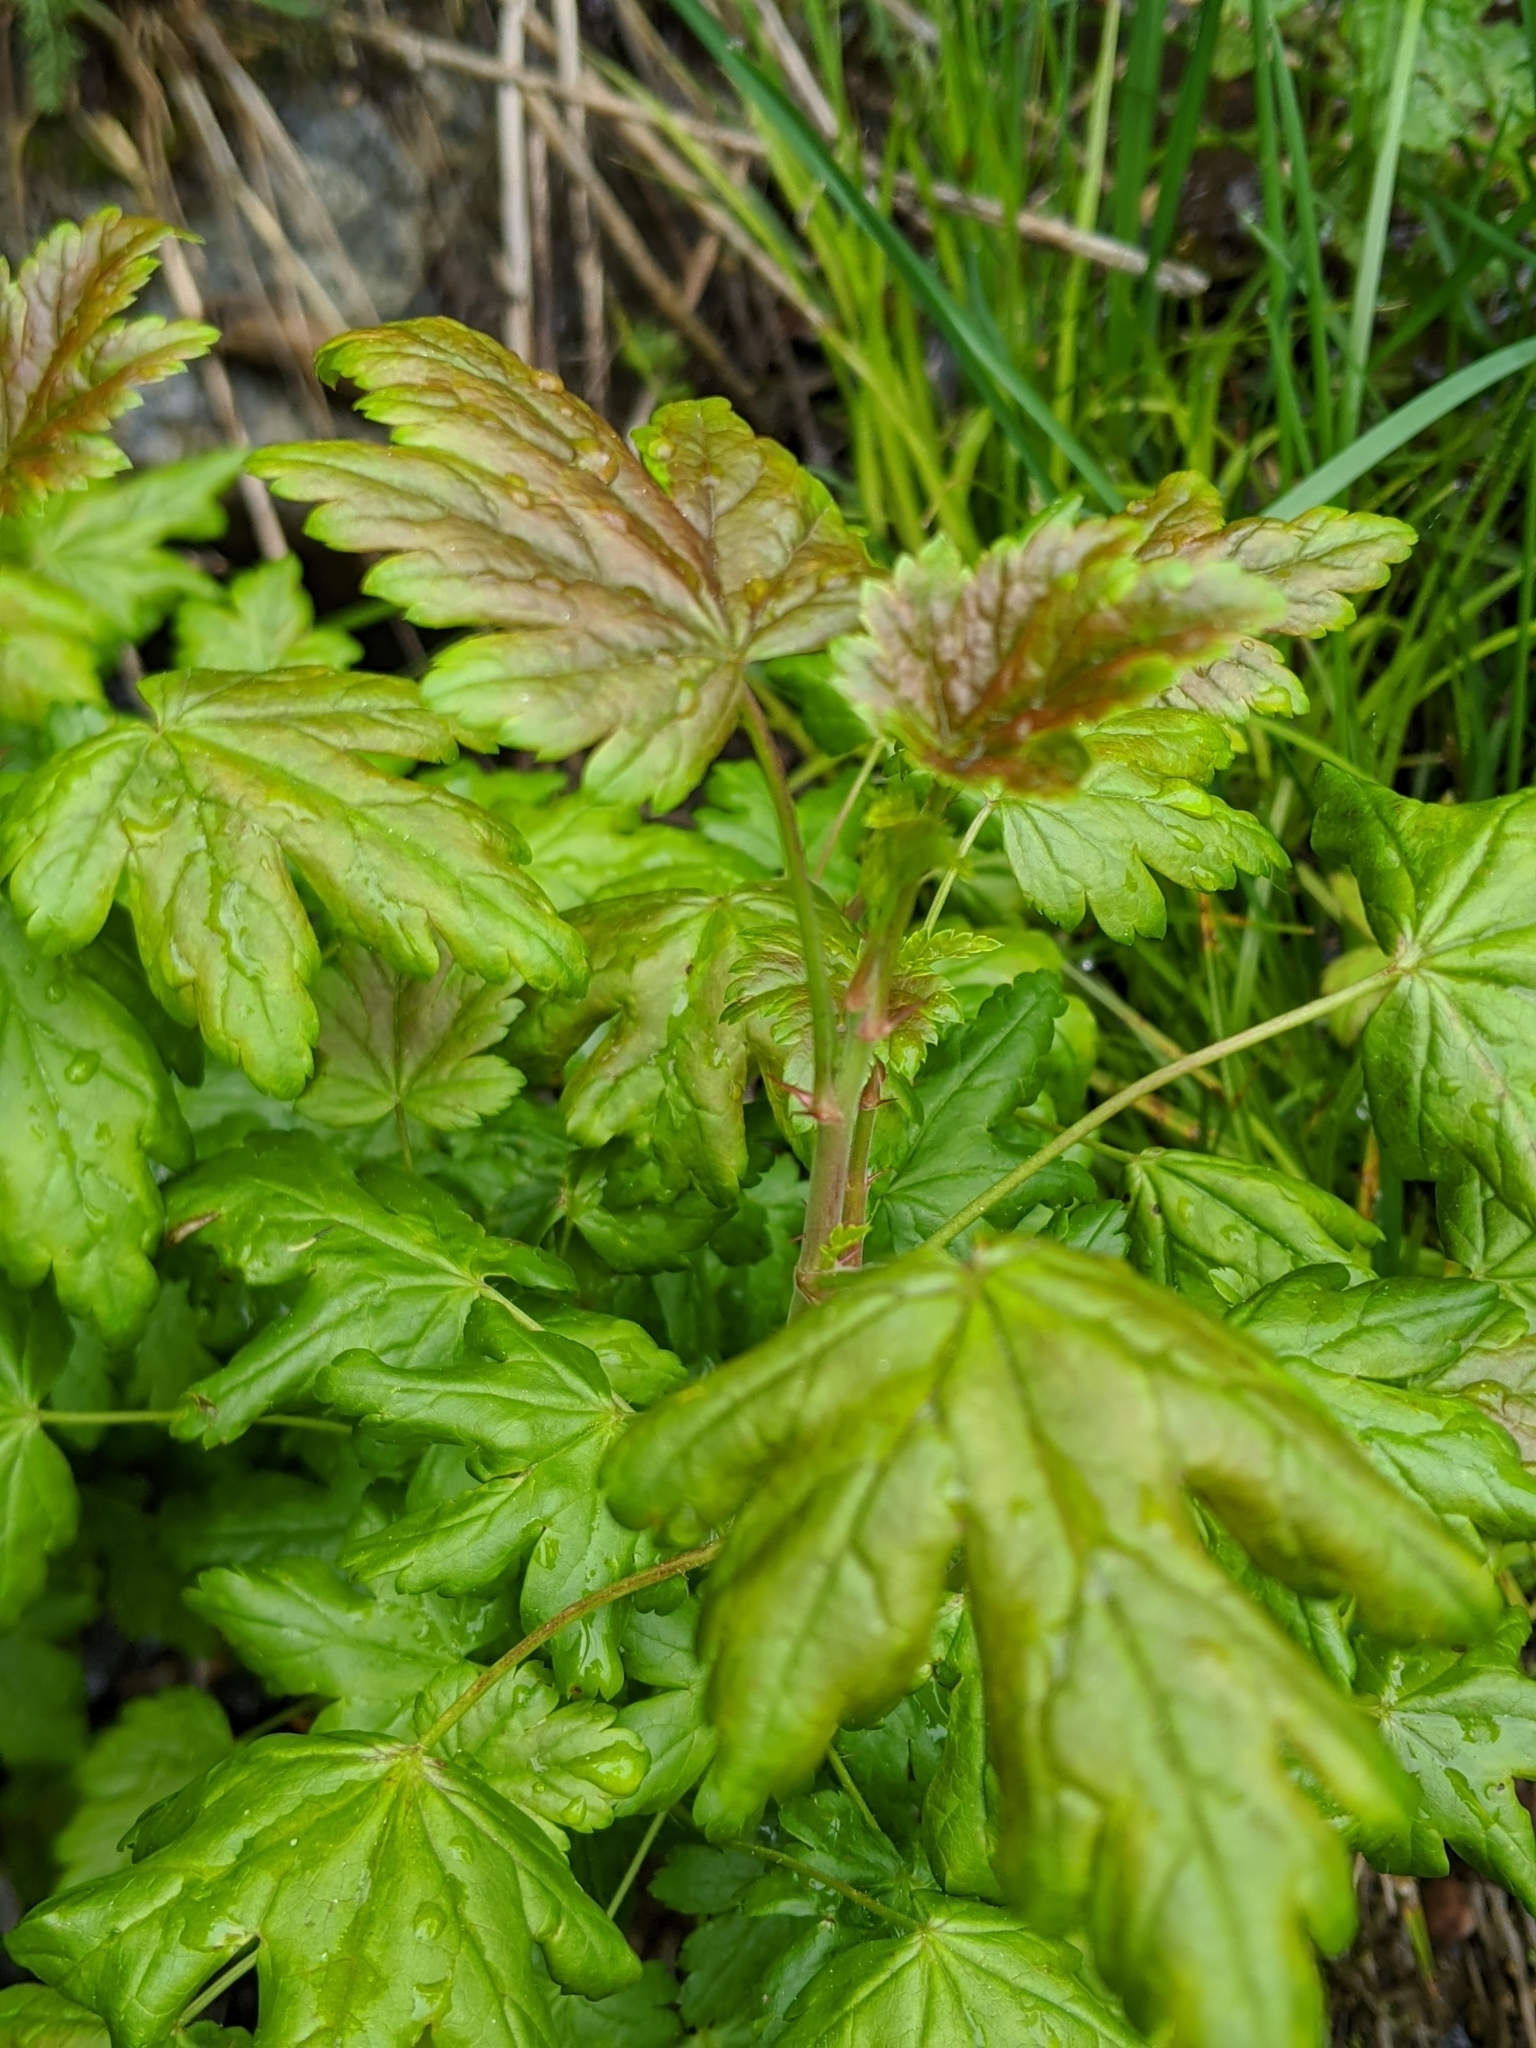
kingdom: Plantae
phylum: Tracheophyta
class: Magnoliopsida
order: Saxifragales
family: Grossulariaceae
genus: Ribes
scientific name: Ribes lacustre
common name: Black gooseberry
